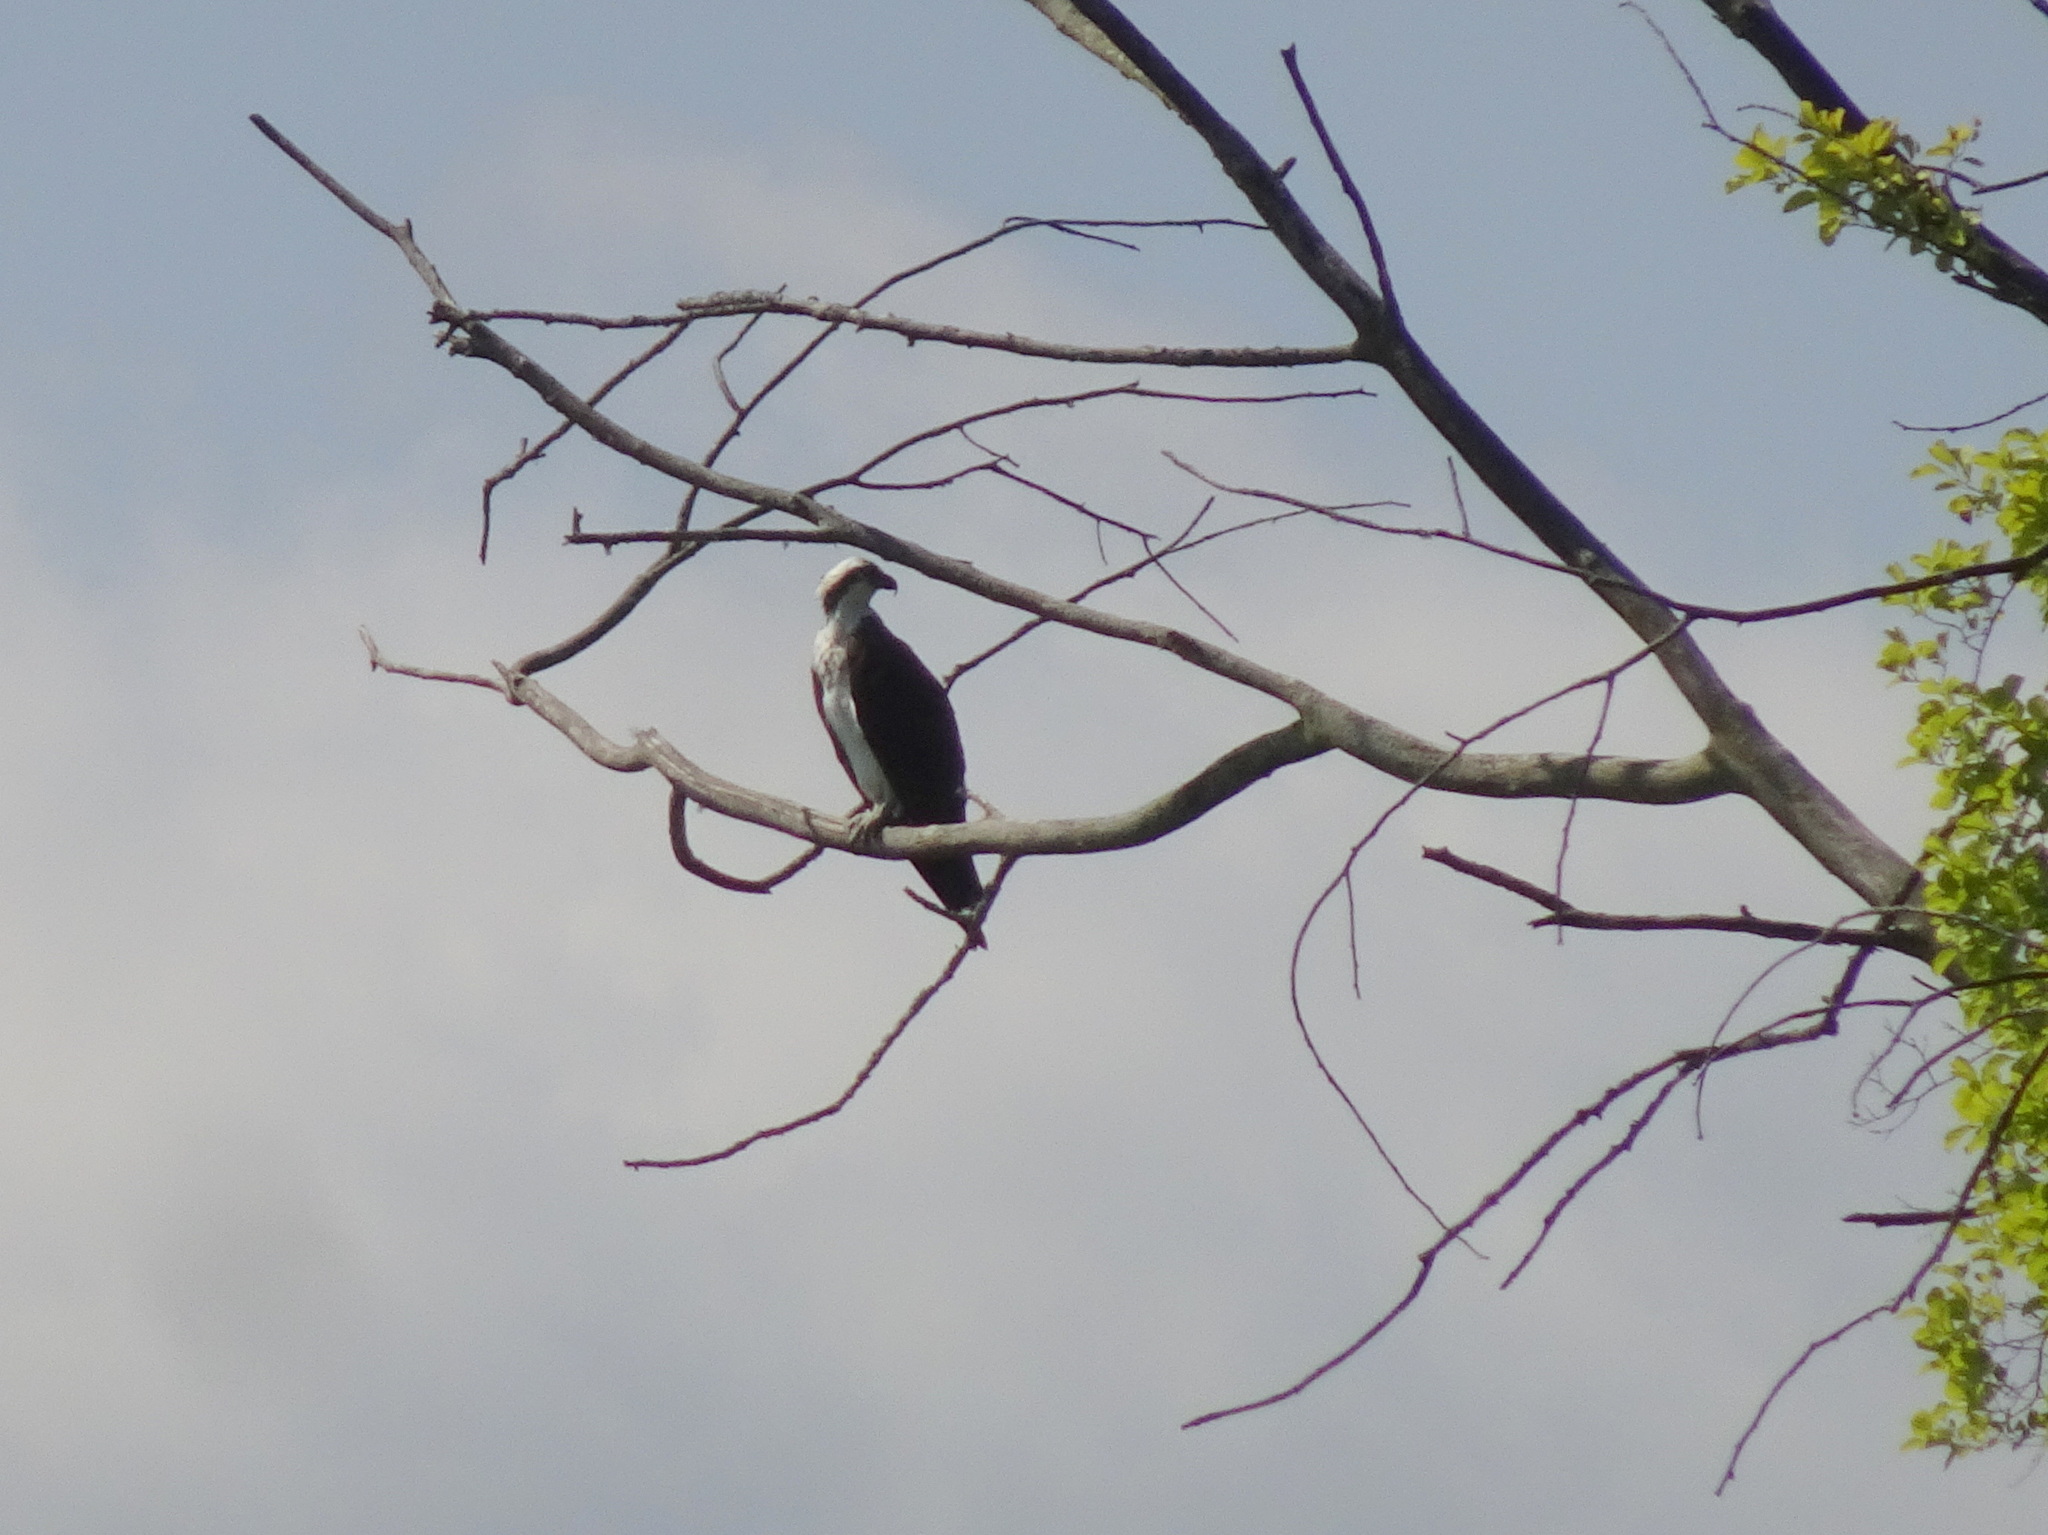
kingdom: Animalia
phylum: Chordata
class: Aves
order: Accipitriformes
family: Pandionidae
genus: Pandion
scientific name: Pandion haliaetus
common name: Osprey
